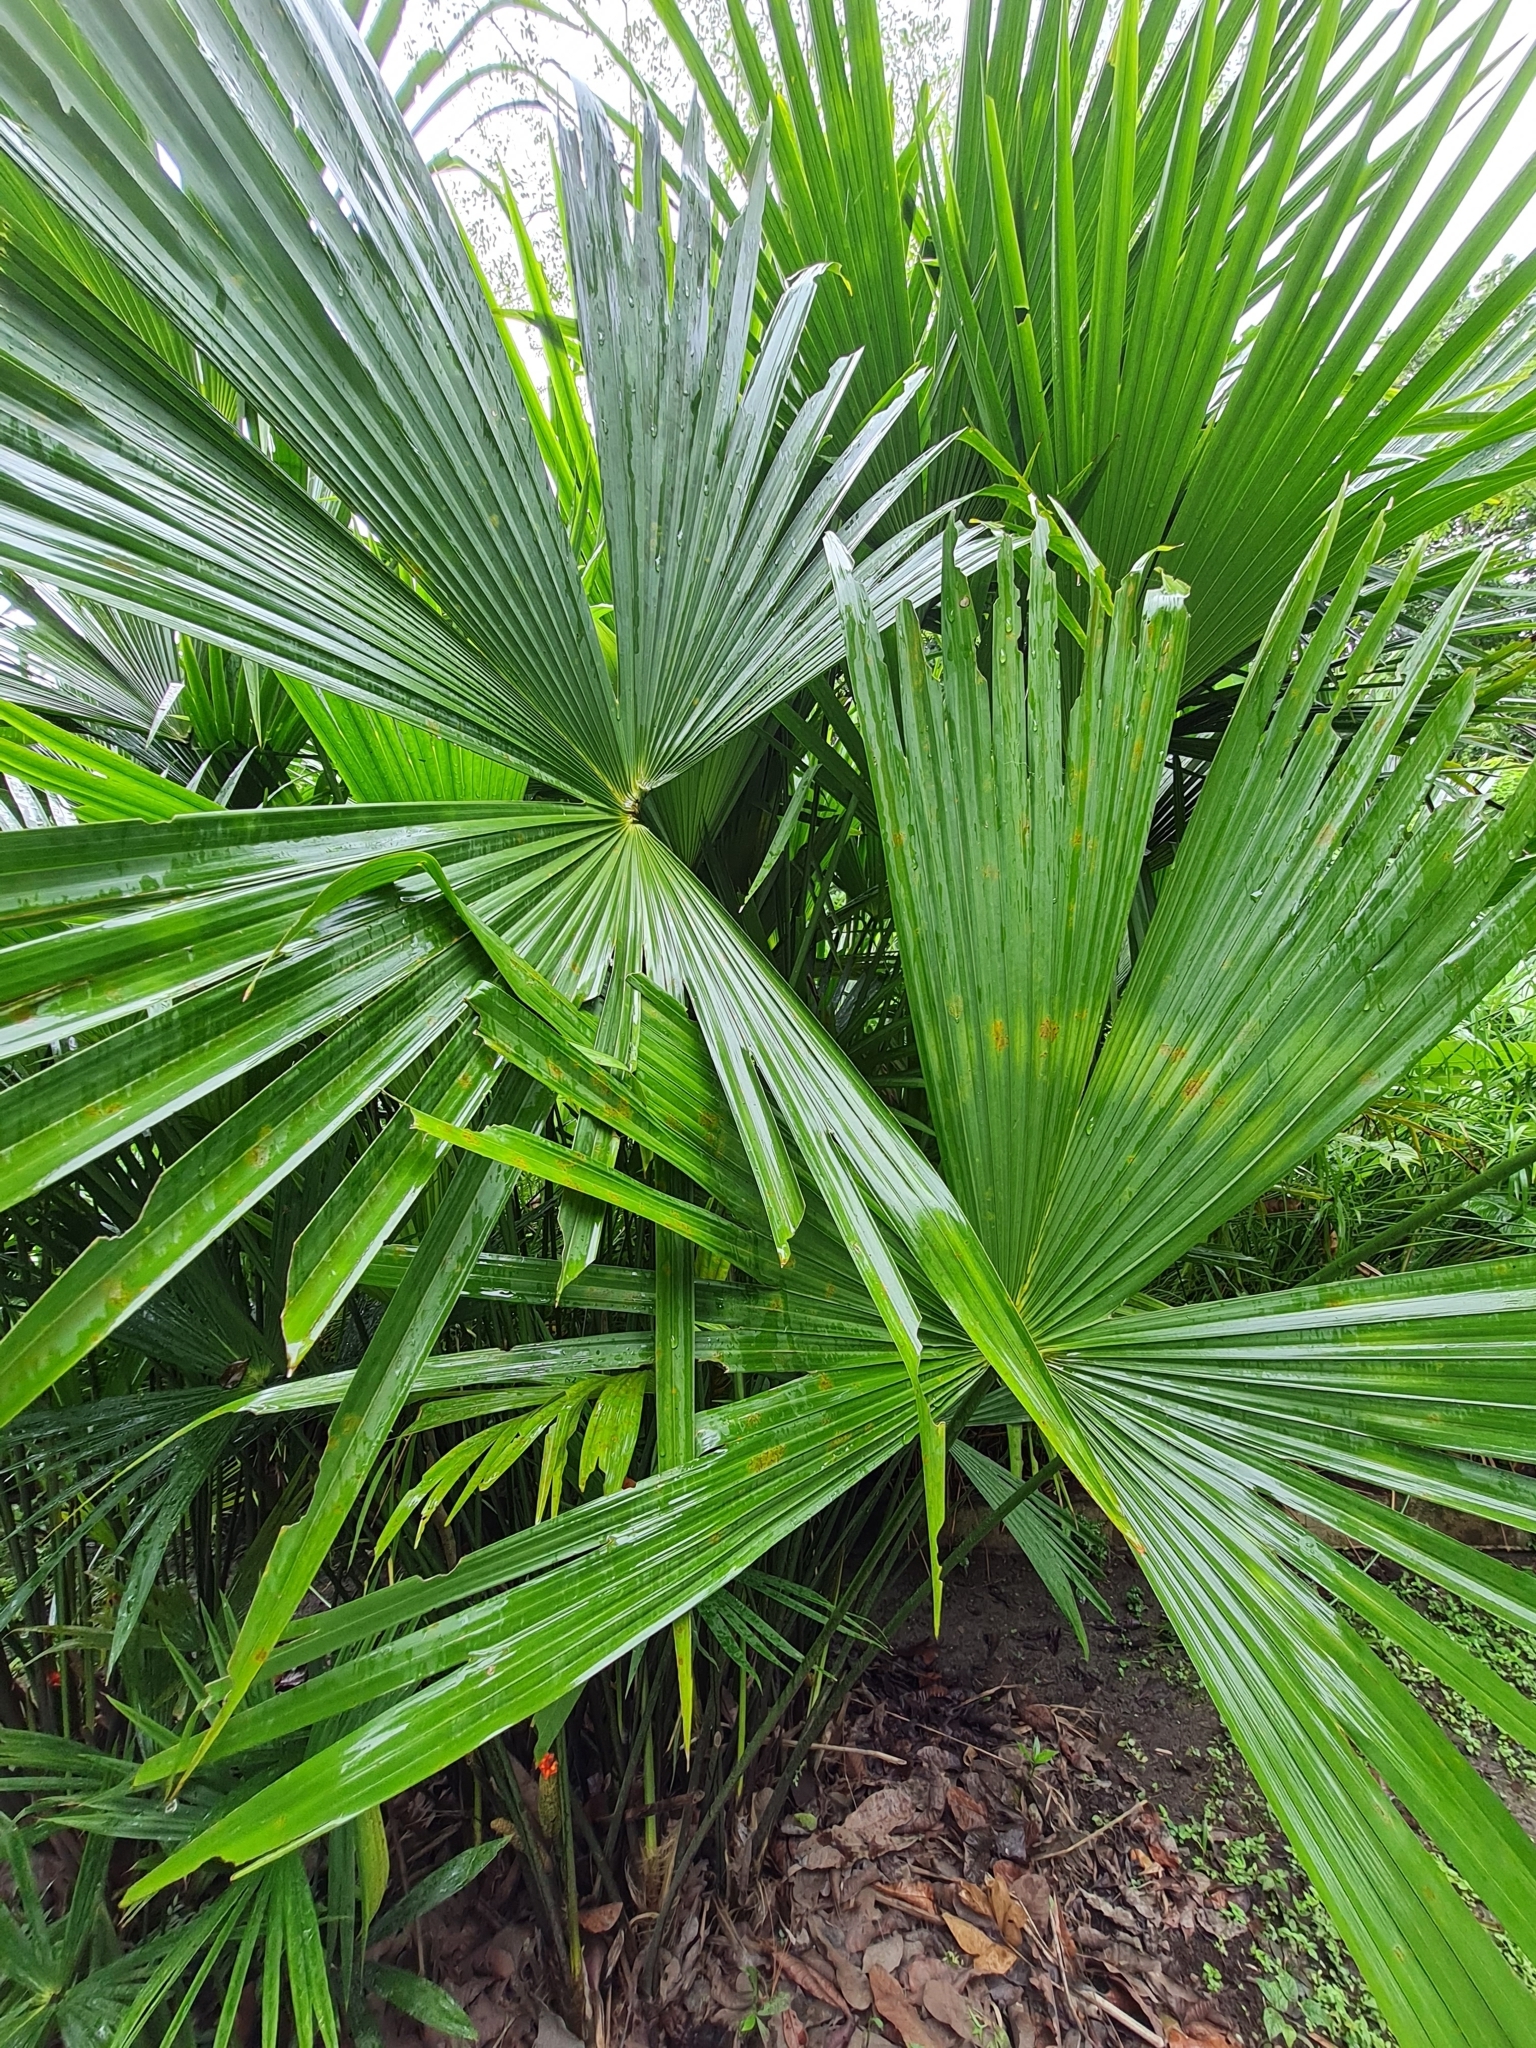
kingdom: Plantae
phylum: Tracheophyta
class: Liliopsida
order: Pandanales
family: Cyclanthaceae
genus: Carludovica
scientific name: Carludovica palmata
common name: Panama hat plant
